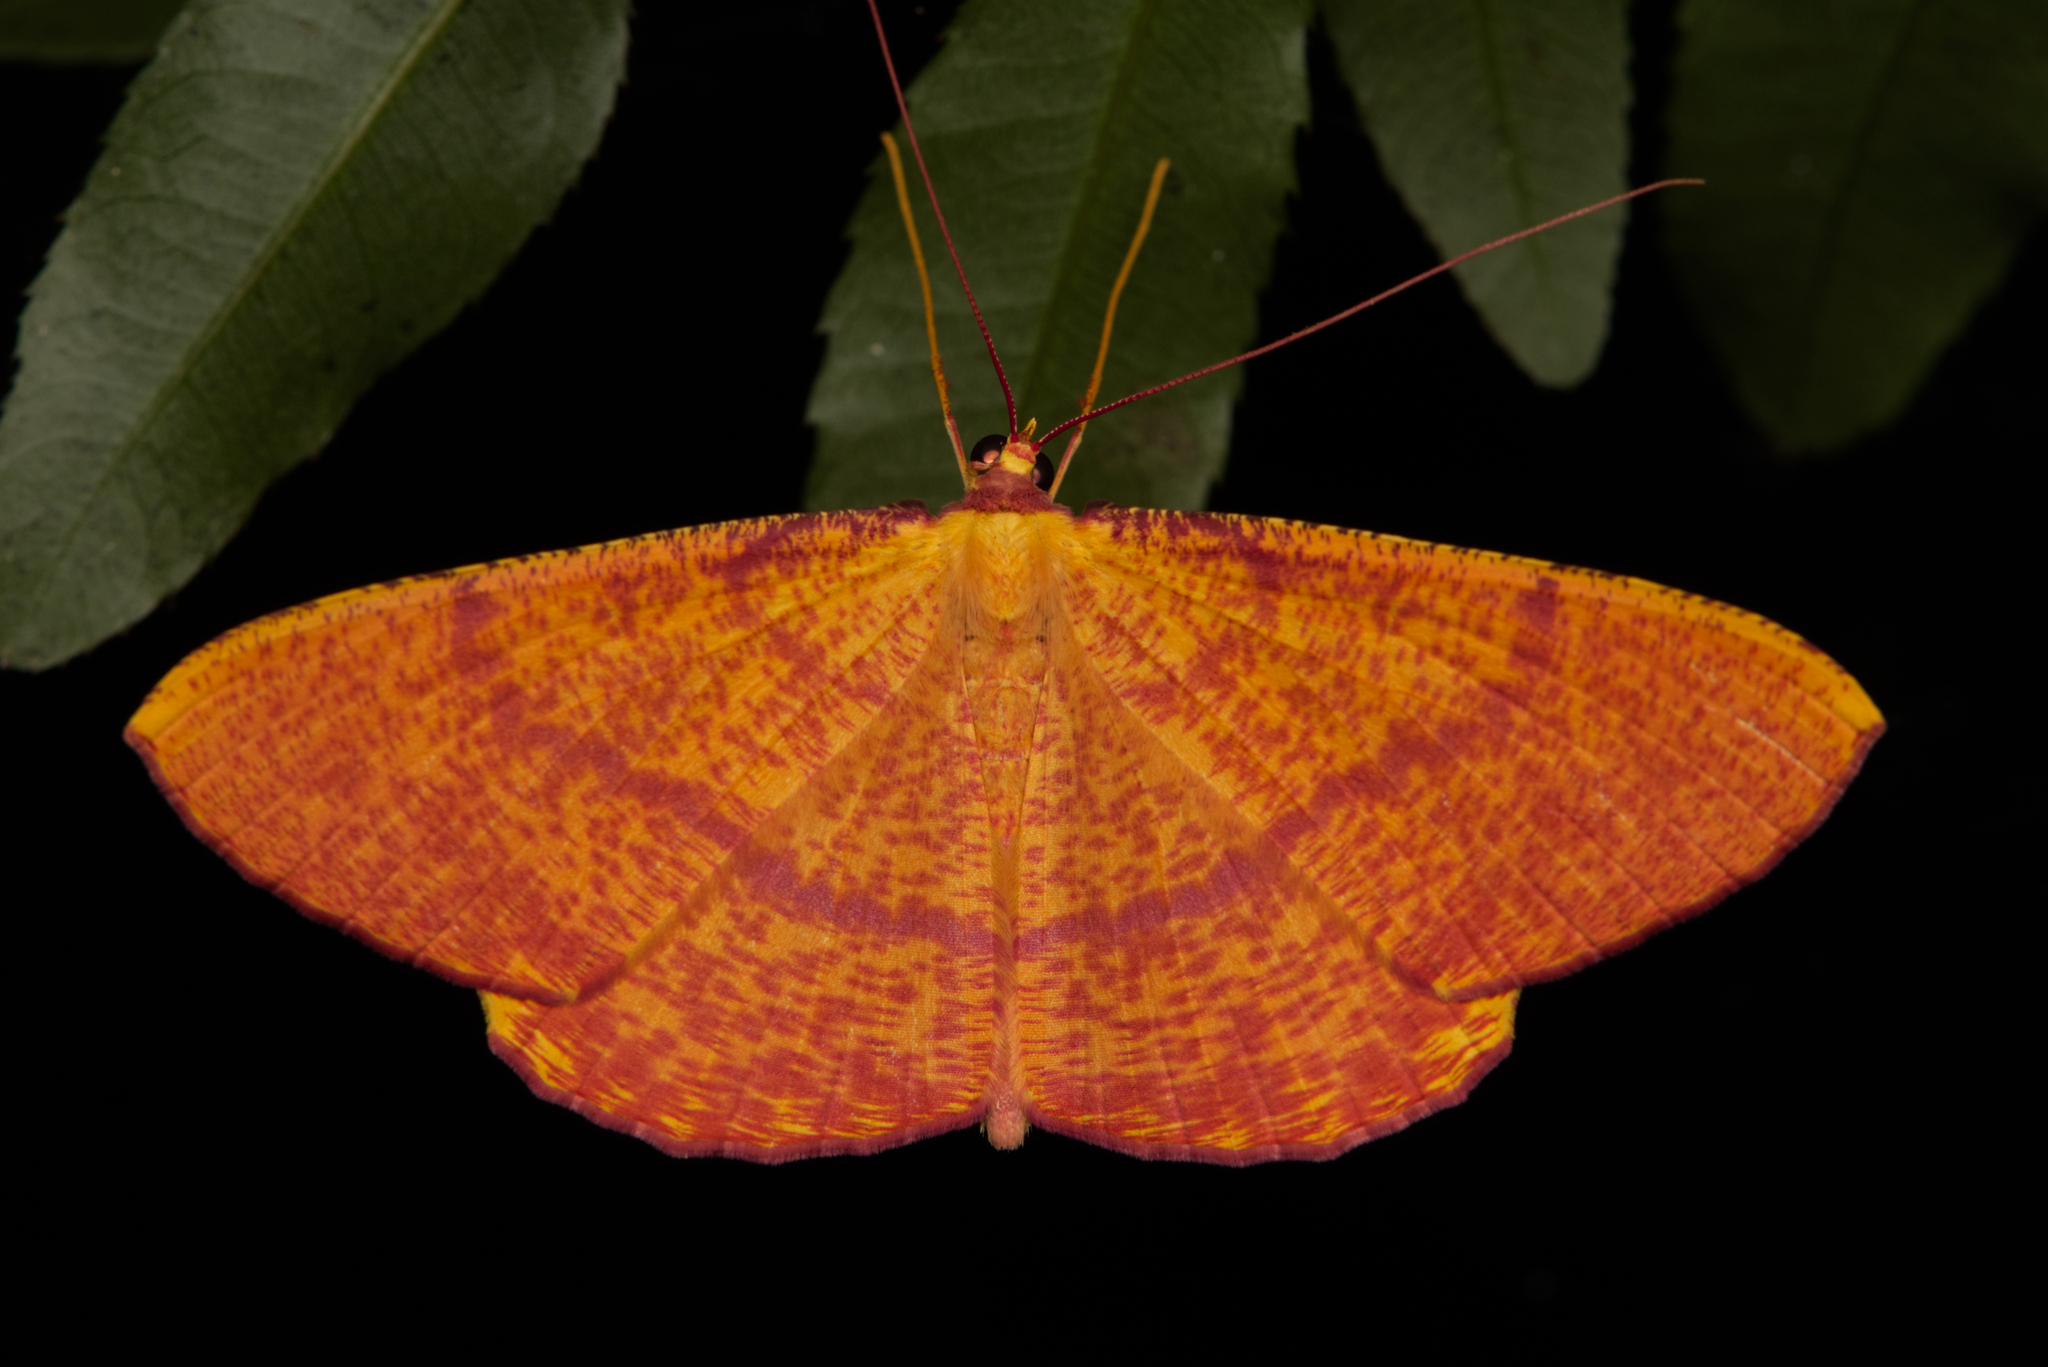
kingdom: Animalia
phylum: Arthropoda
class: Insecta
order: Lepidoptera
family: Geometridae
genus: Eumelea
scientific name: Eumelea rosalia
